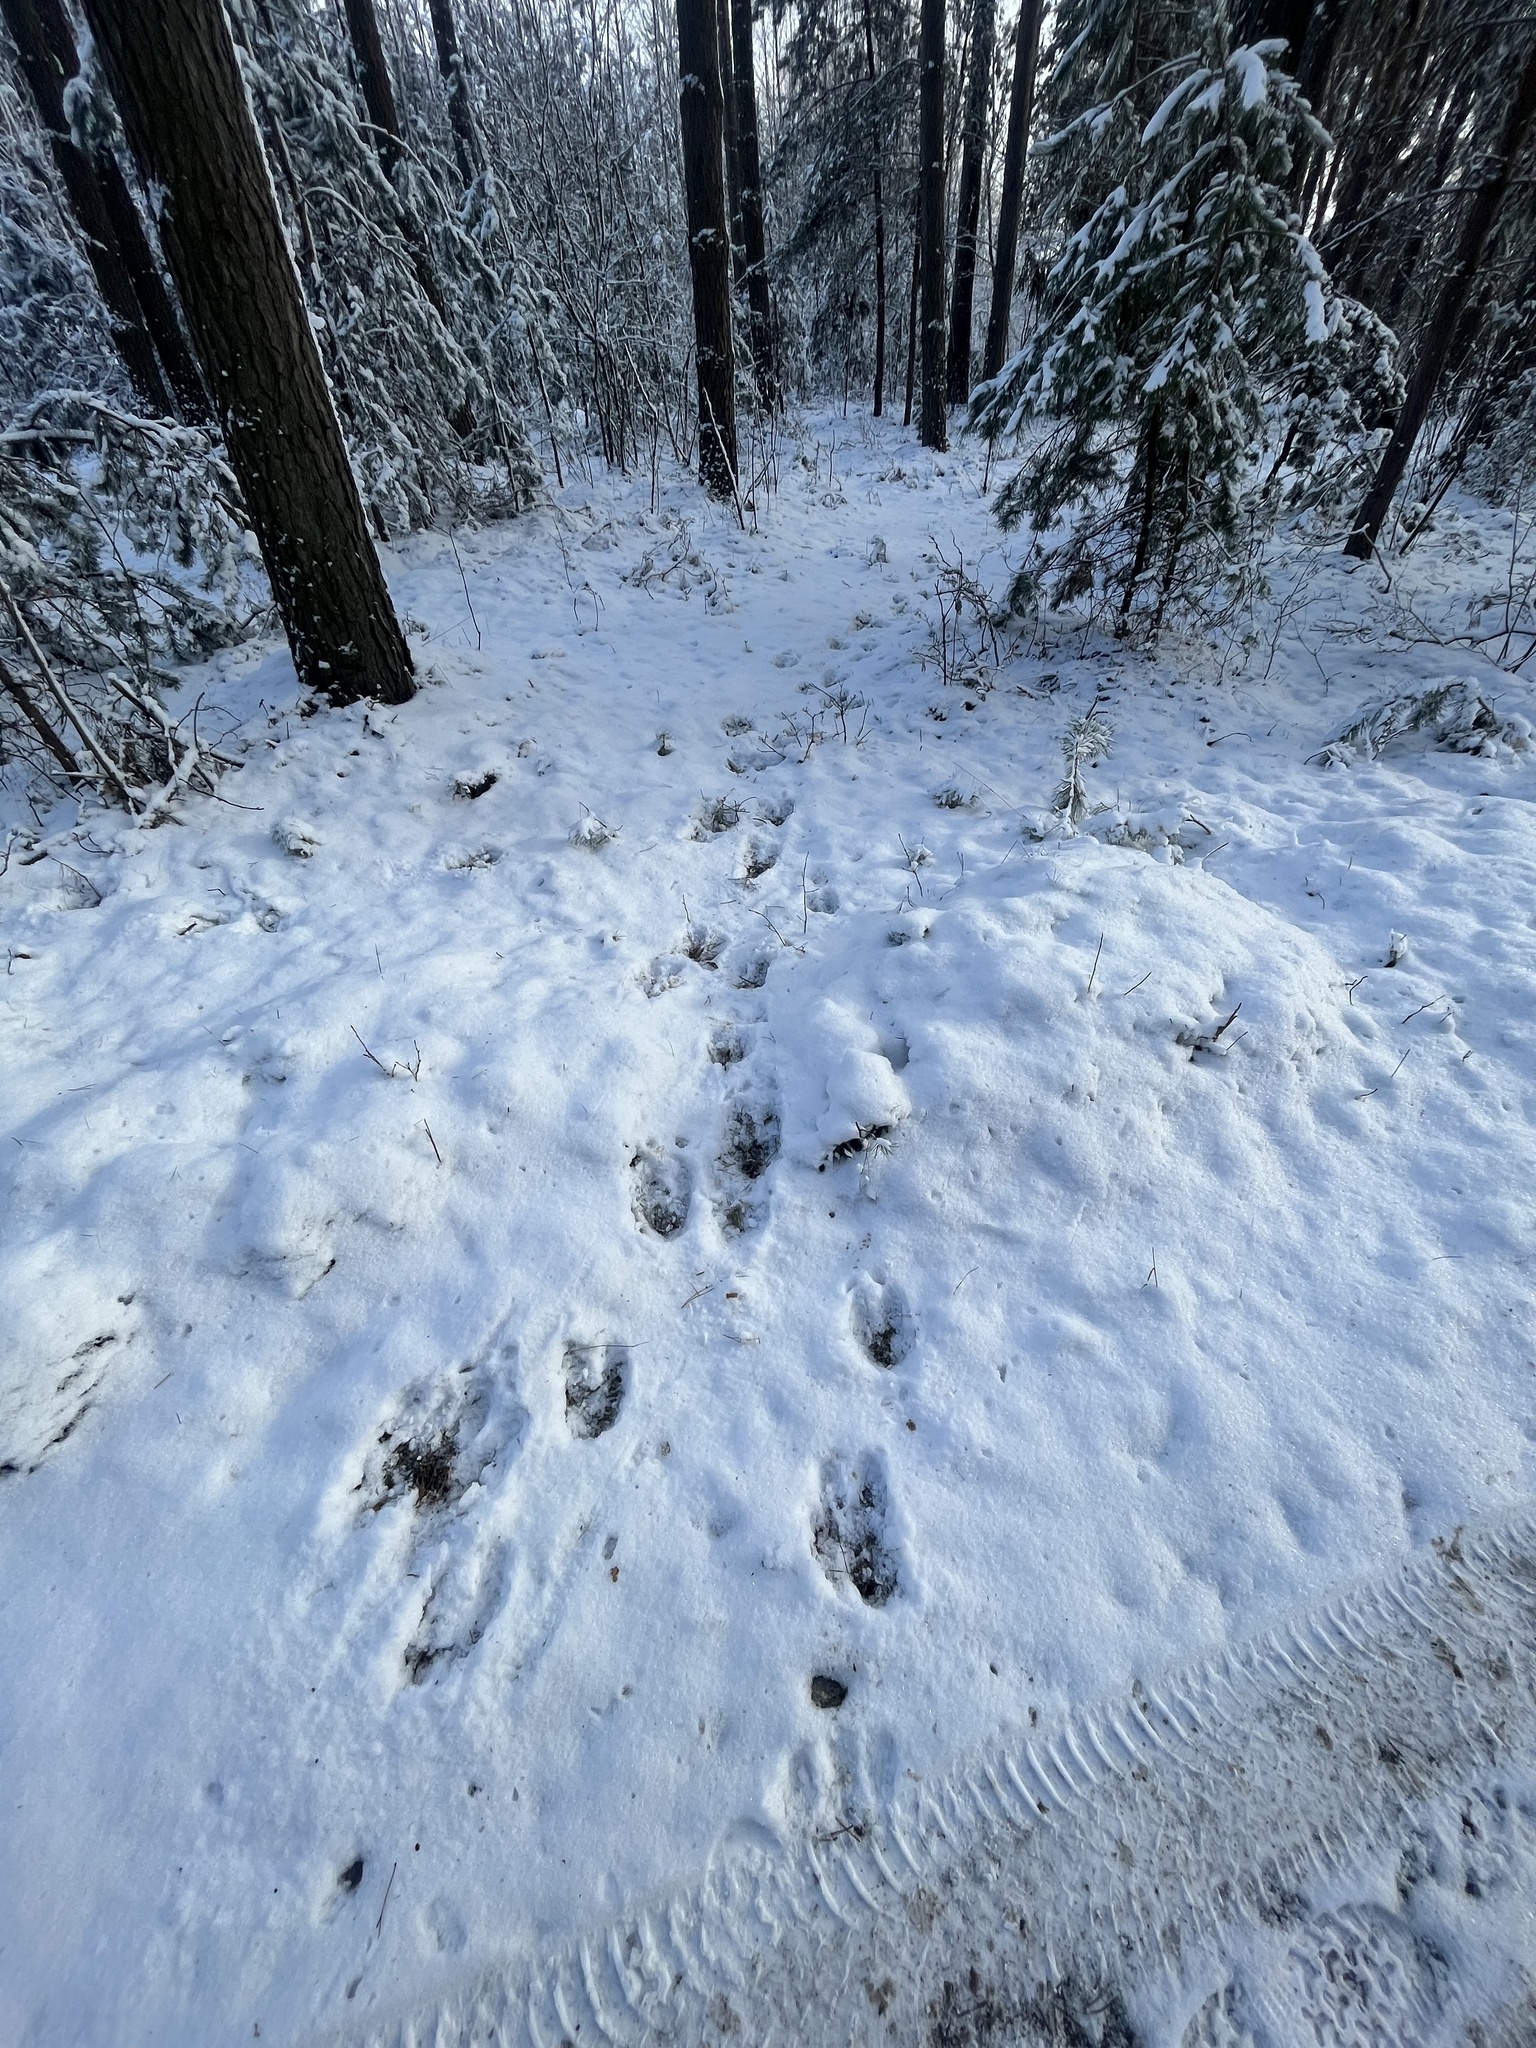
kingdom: Animalia
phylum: Chordata
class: Mammalia
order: Artiodactyla
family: Cervidae
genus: Alces
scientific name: Alces alces
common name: Moose
